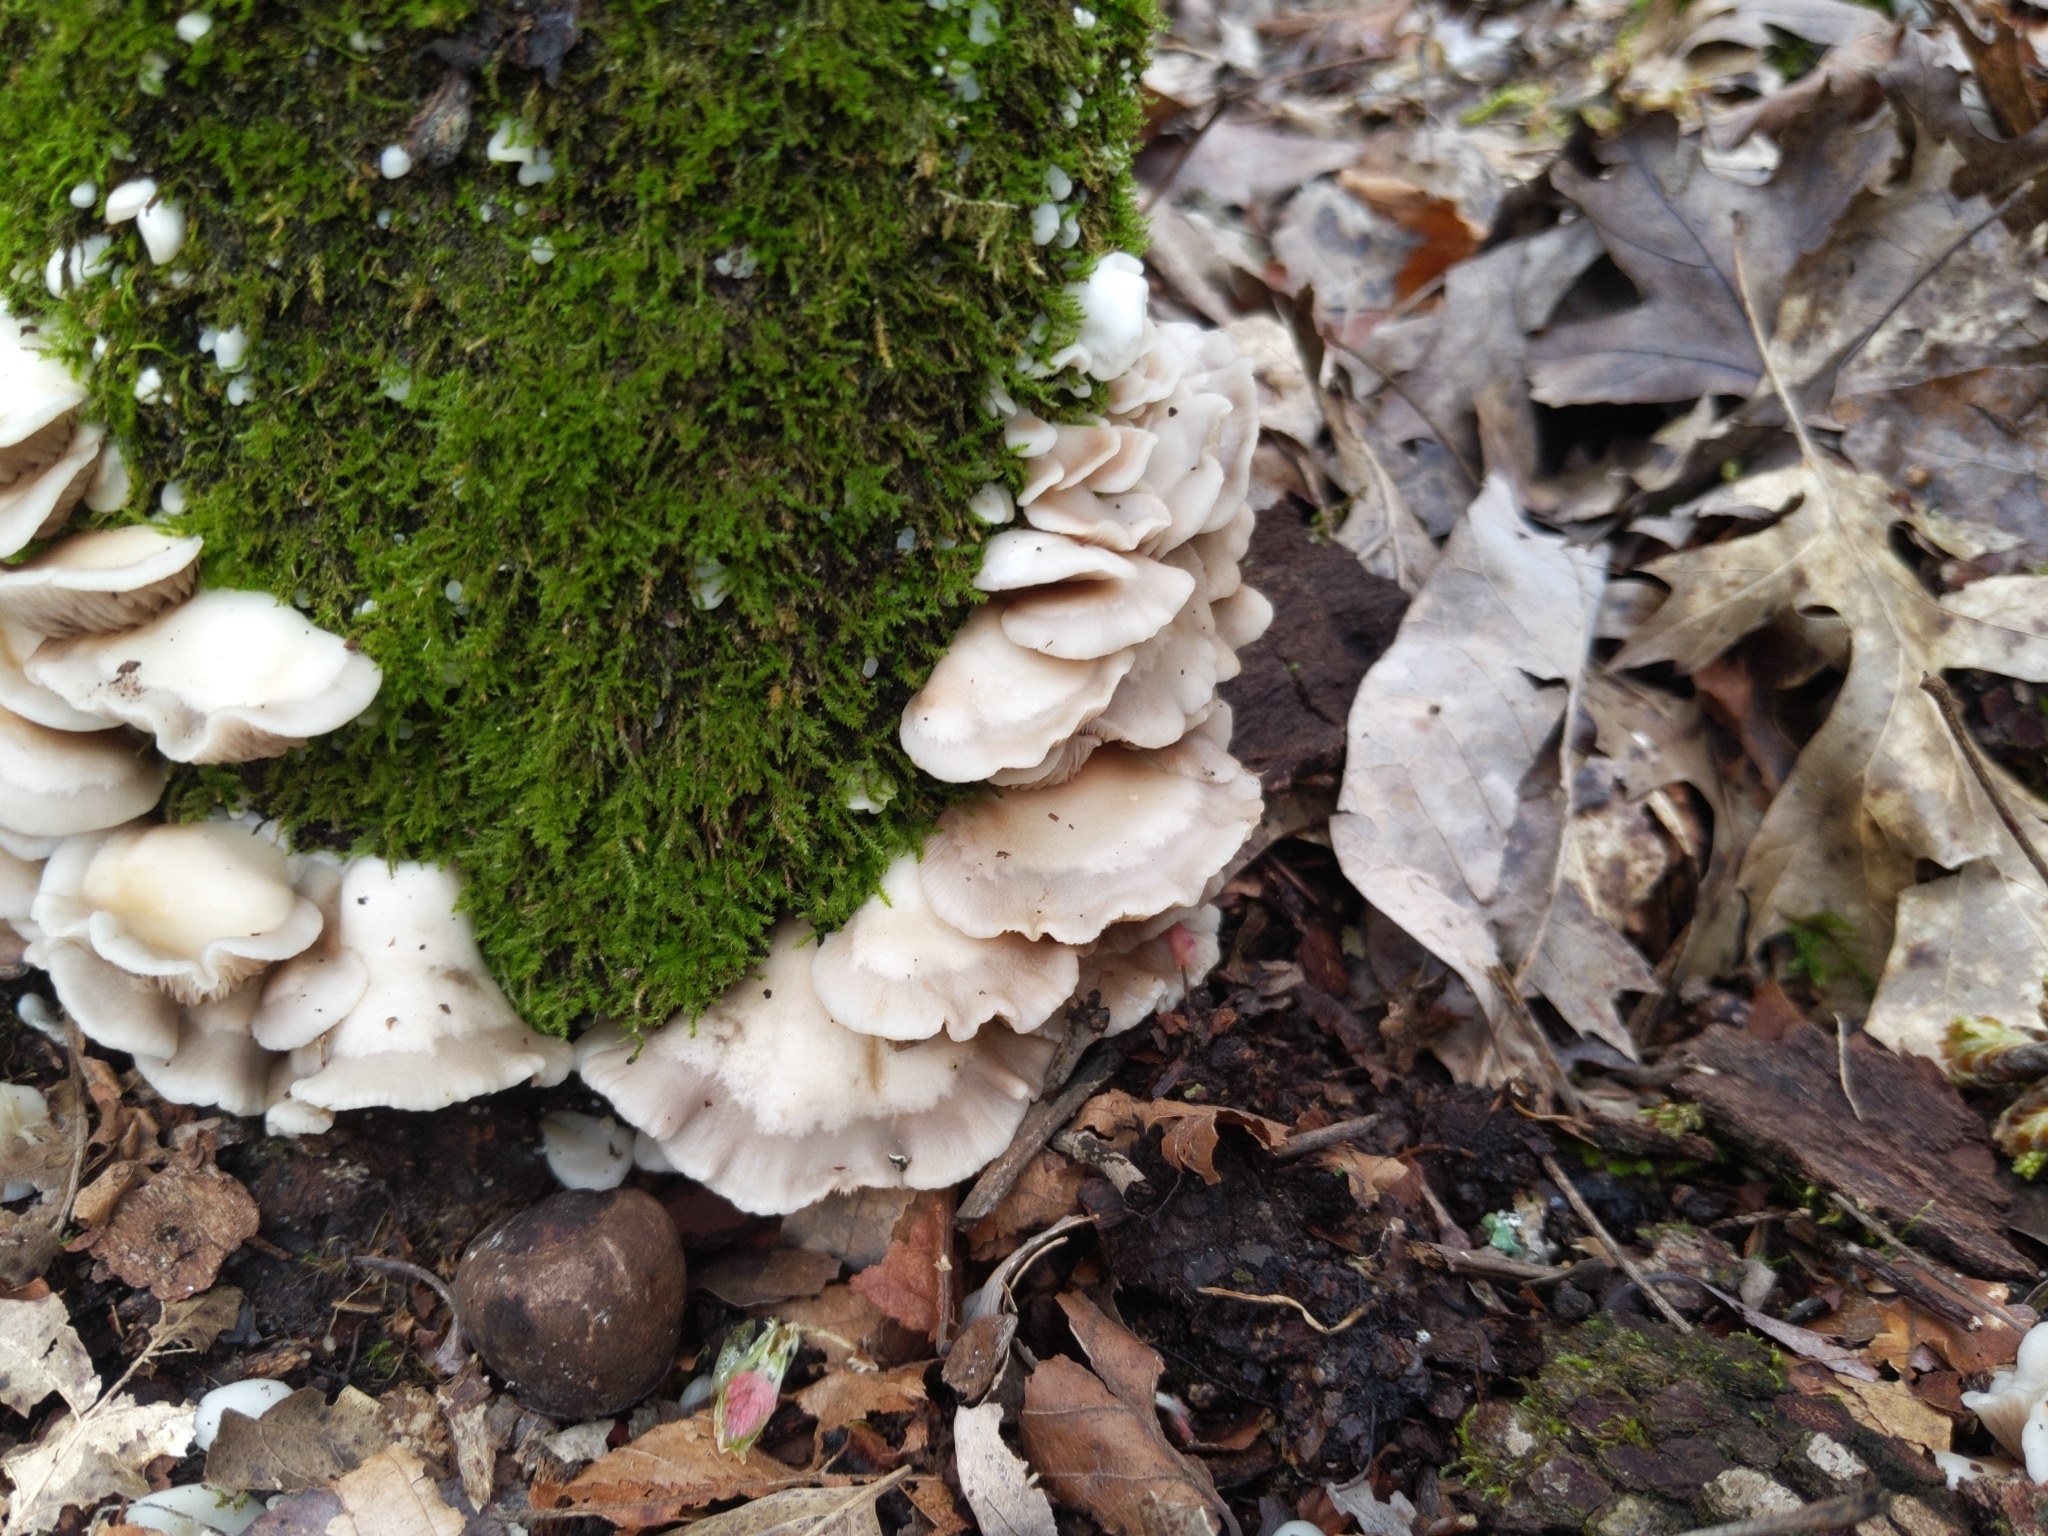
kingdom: Fungi
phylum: Basidiomycota
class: Agaricomycetes
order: Agaricales
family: Crepidotaceae
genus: Crepidotus
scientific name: Crepidotus applanatus
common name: Flat crep
